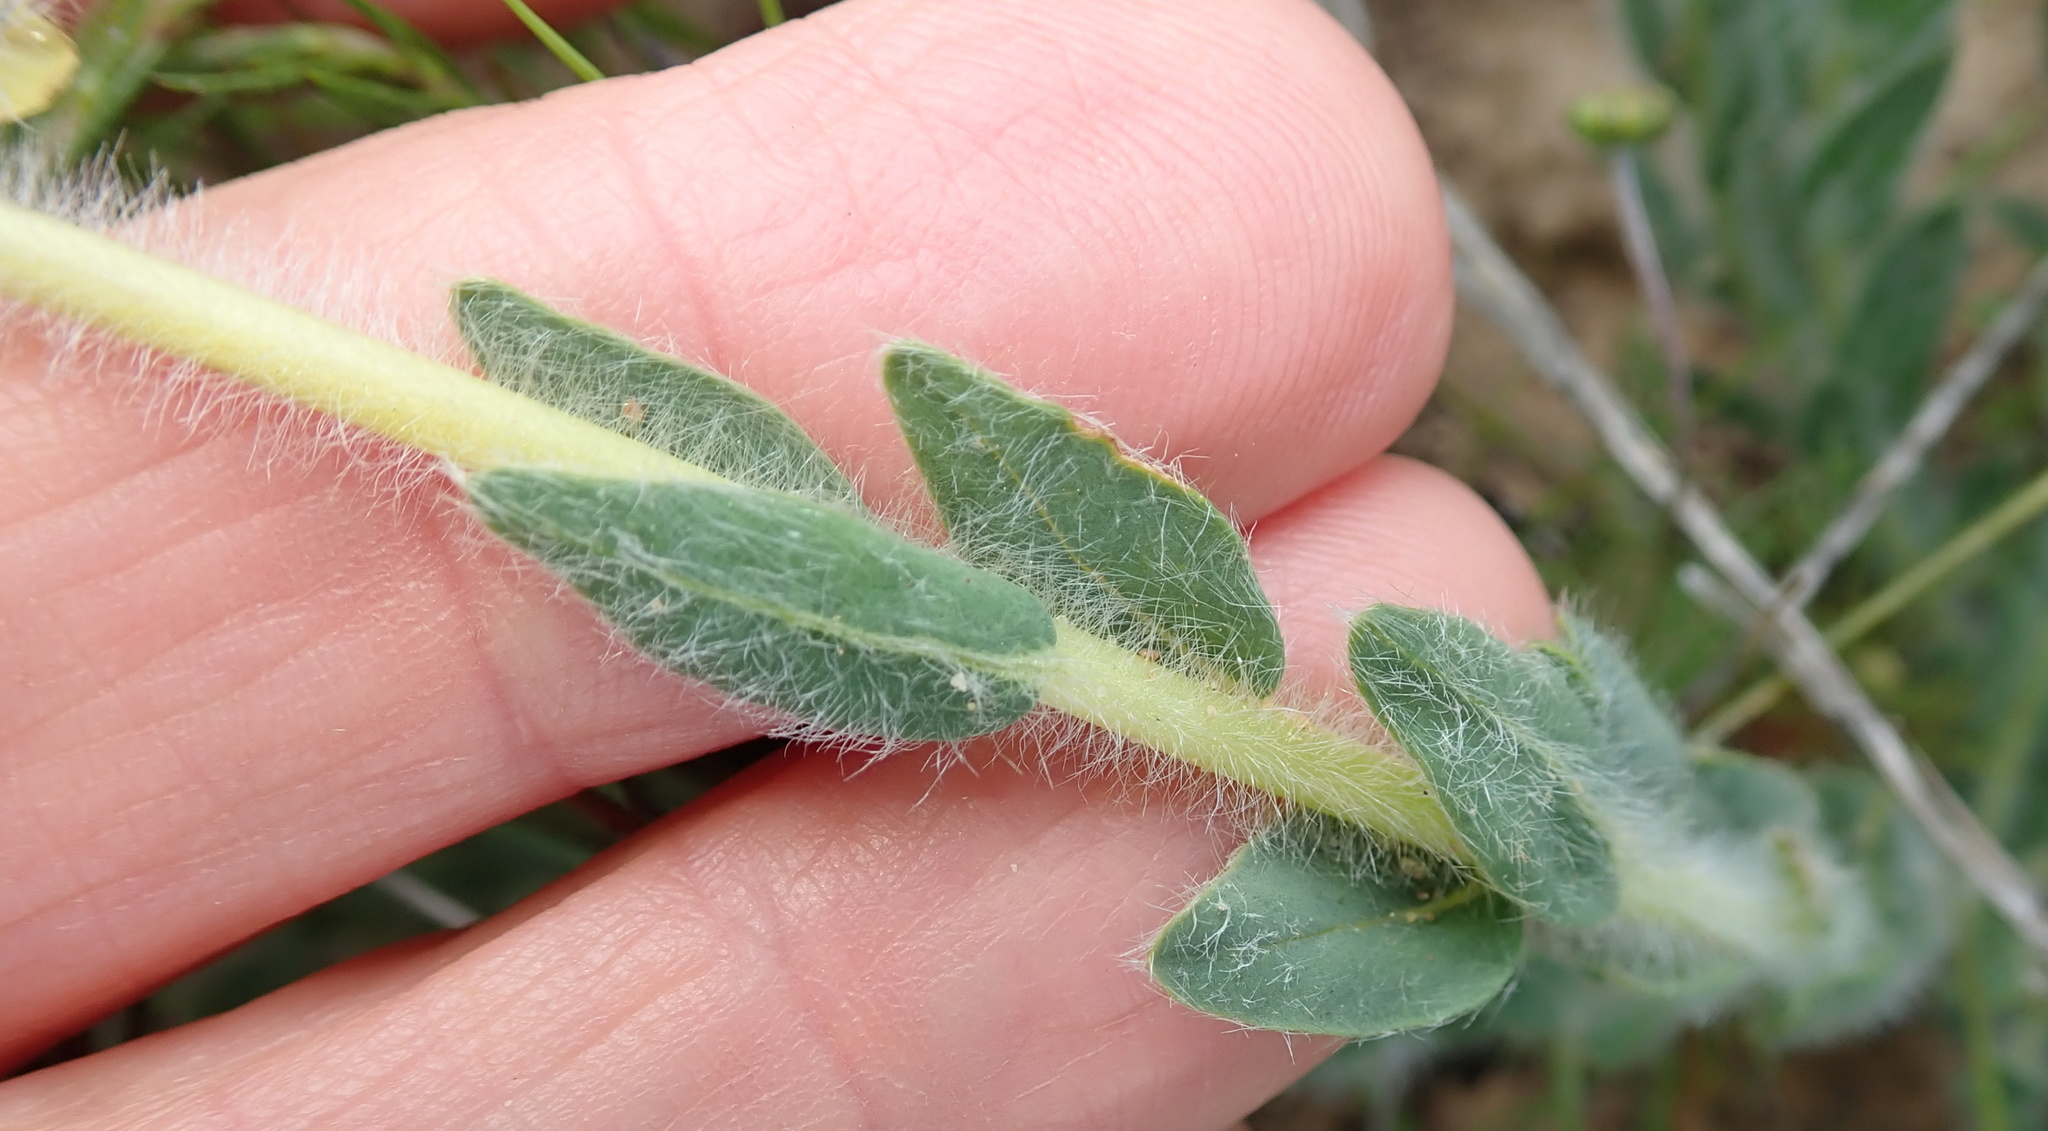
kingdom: Plantae
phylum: Tracheophyta
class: Magnoliopsida
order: Fabales
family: Fabaceae
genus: Euchlora
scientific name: Euchlora hirsuta
